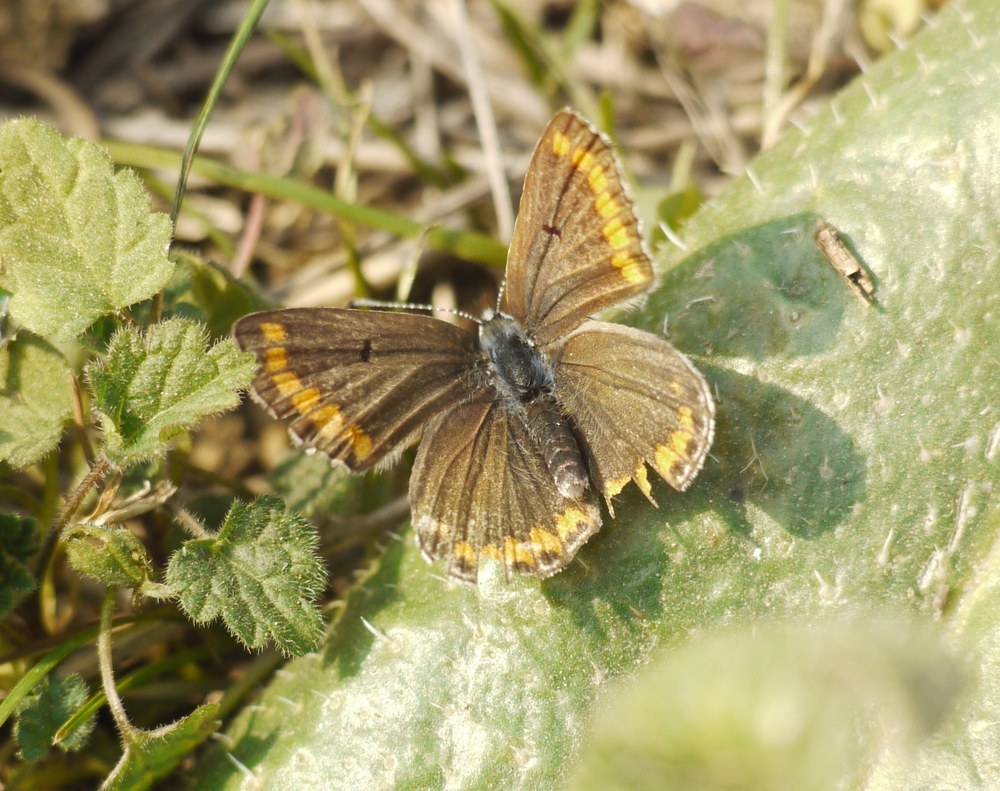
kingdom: Animalia
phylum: Arthropoda
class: Insecta
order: Lepidoptera
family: Lycaenidae
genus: Aricia
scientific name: Aricia agestis
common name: Brown argus
